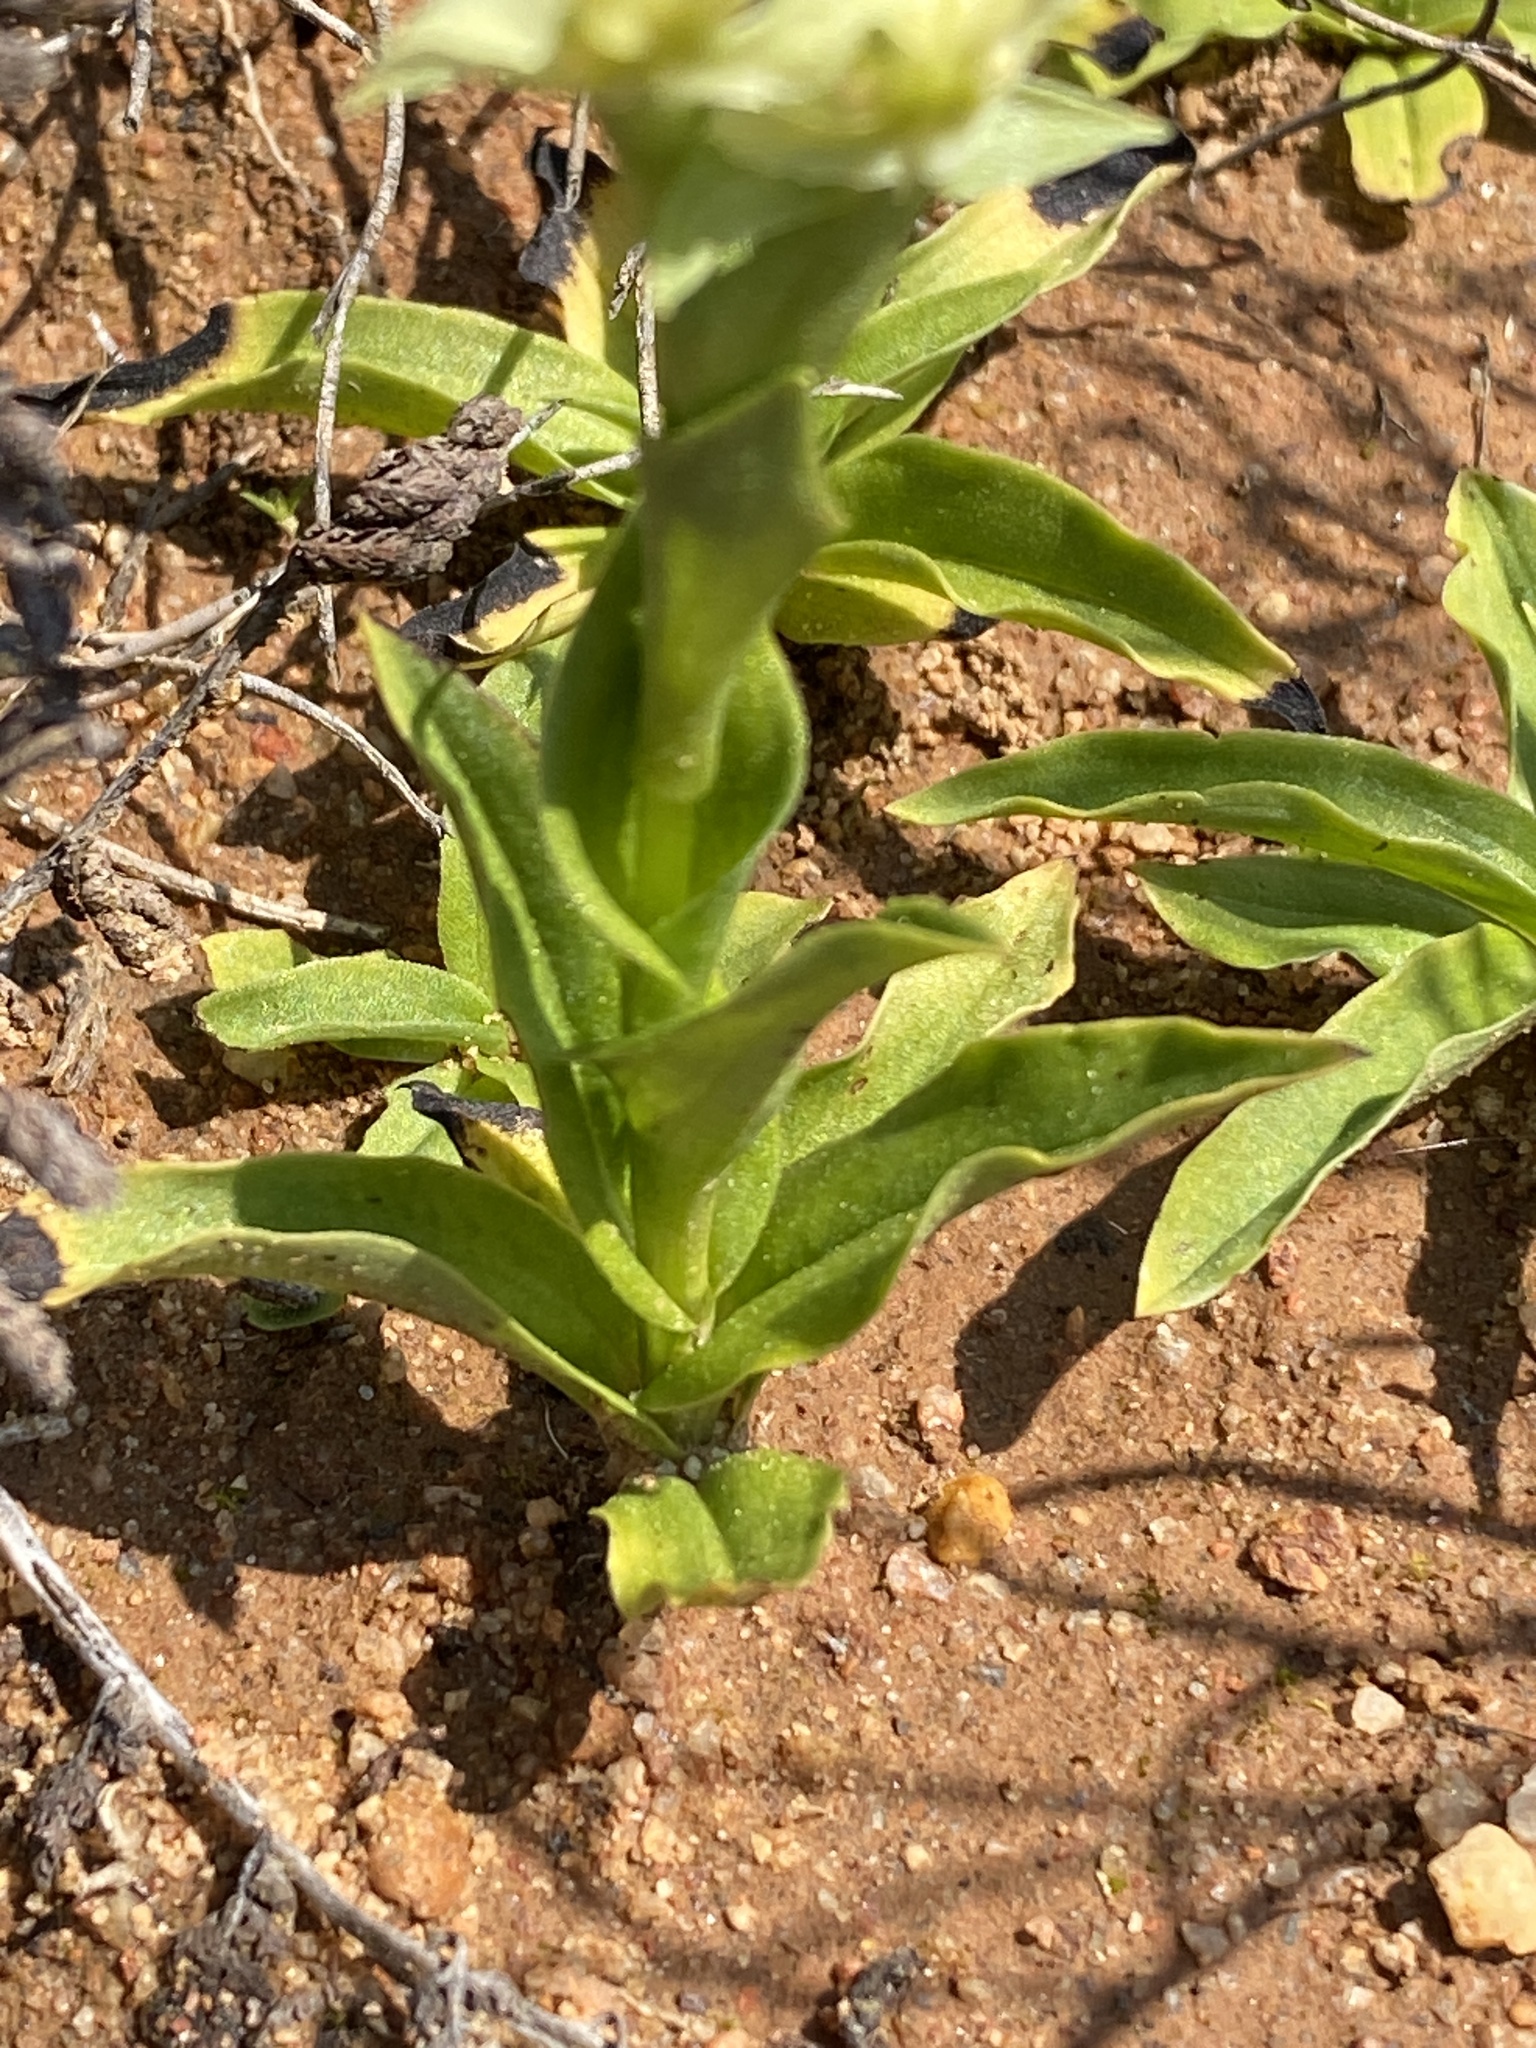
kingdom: Plantae
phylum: Tracheophyta
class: Liliopsida
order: Asparagales
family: Orchidaceae
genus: Pterygodium
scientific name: Pterygodium alatum
